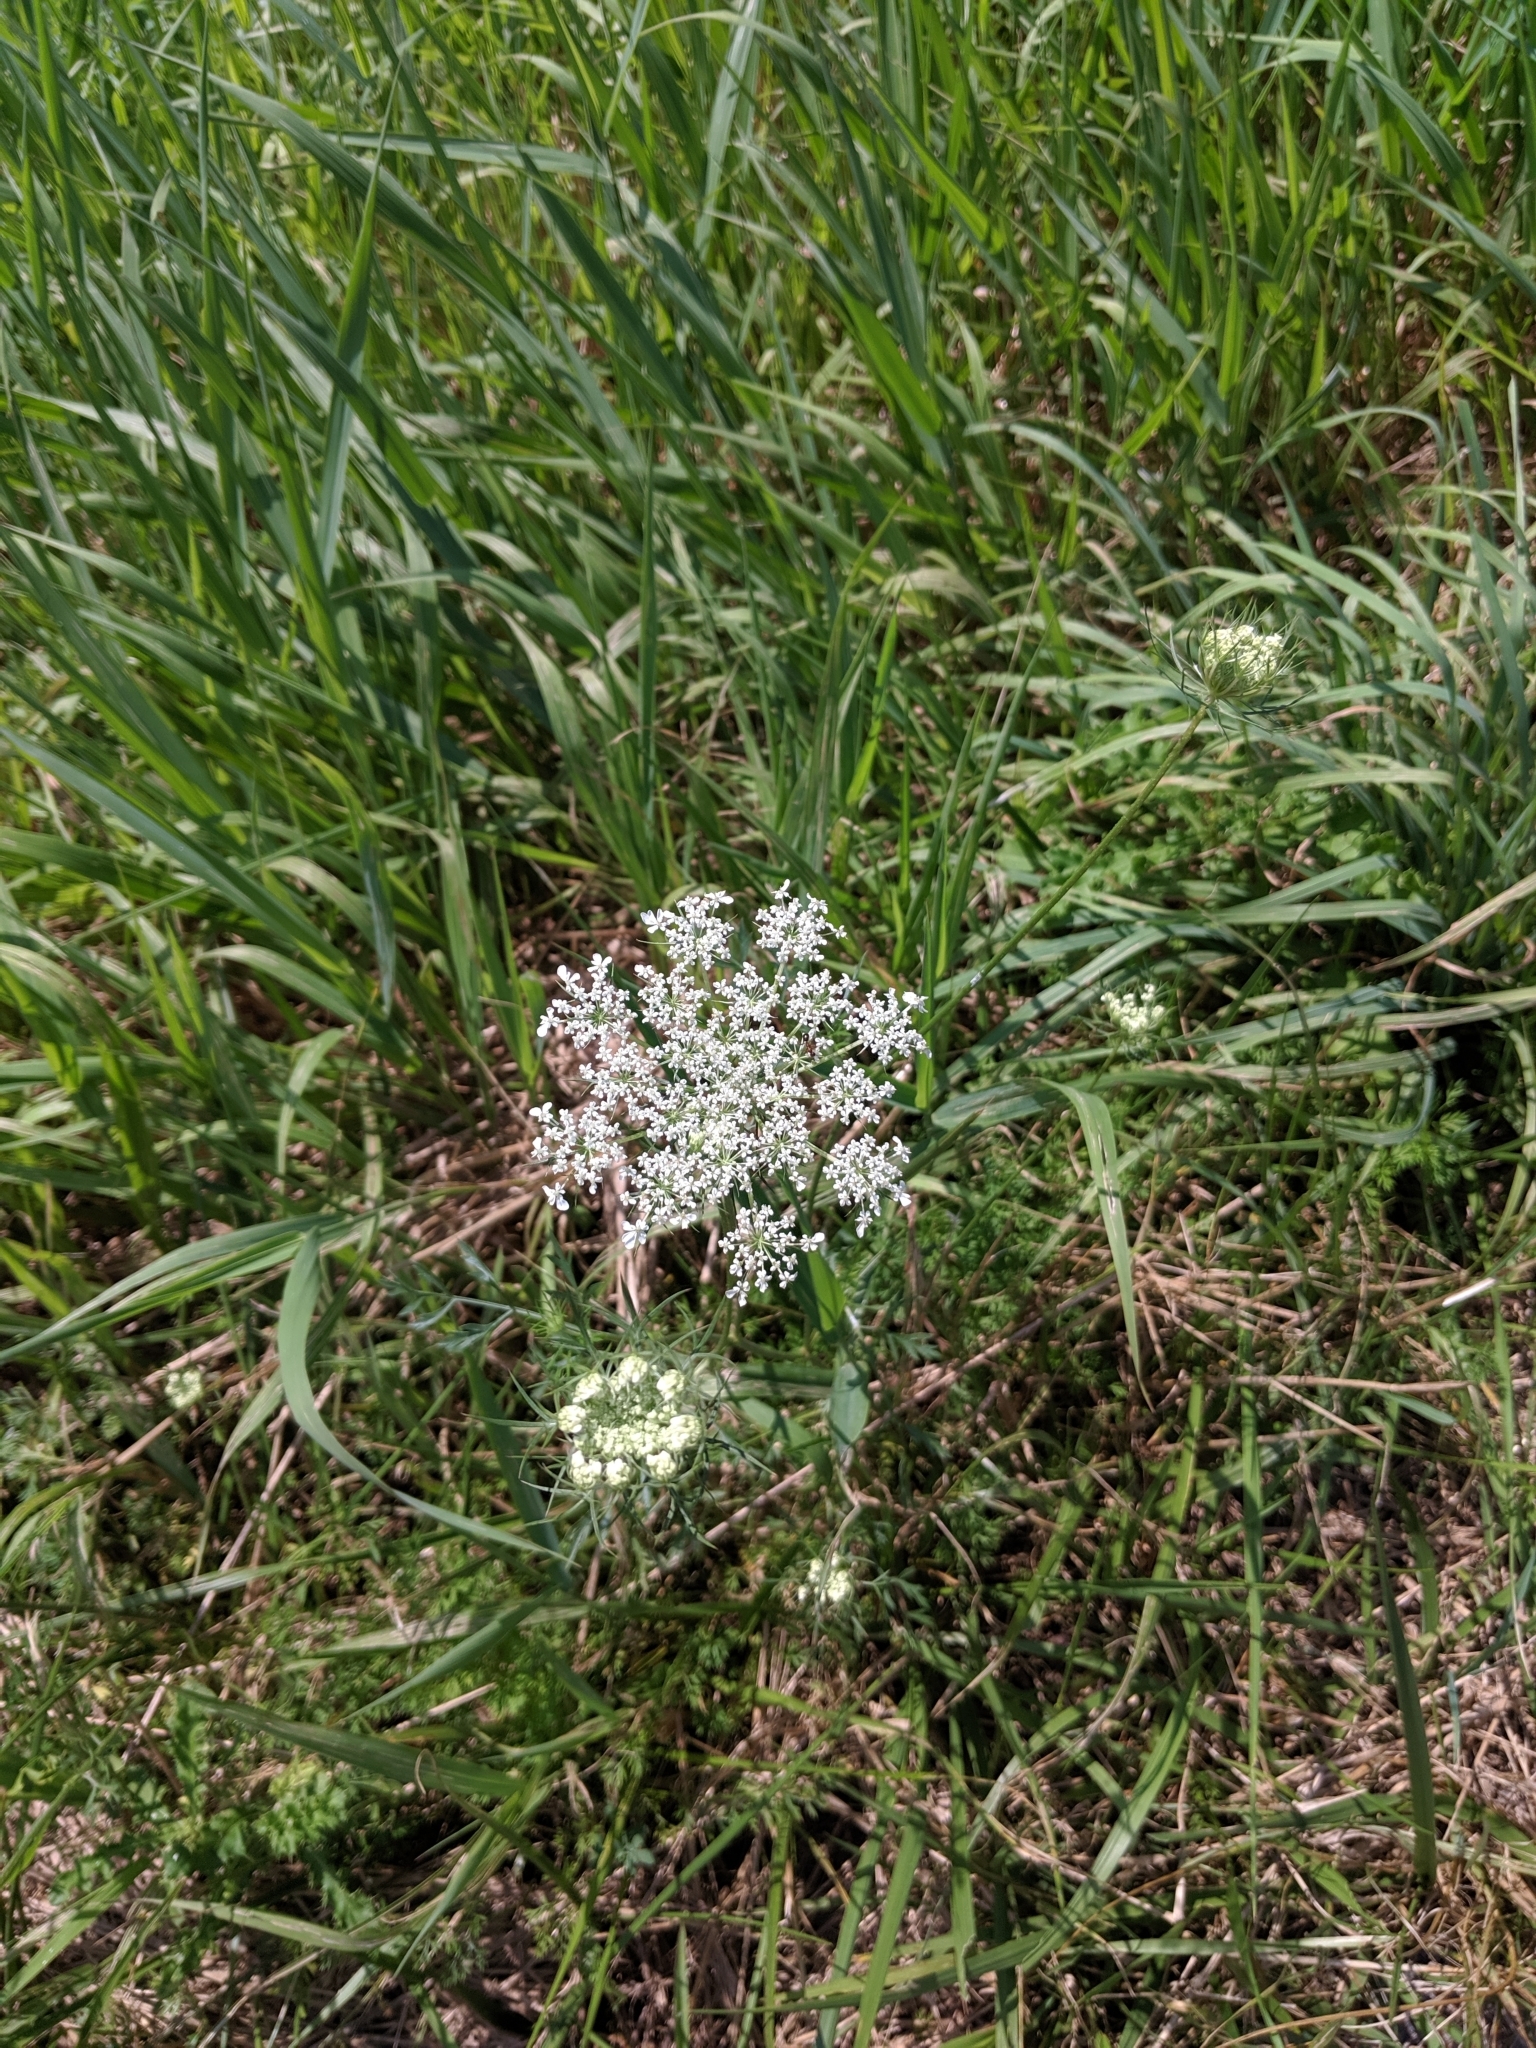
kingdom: Plantae
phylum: Tracheophyta
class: Magnoliopsida
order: Apiales
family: Apiaceae
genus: Daucus
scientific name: Daucus carota
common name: Wild carrot
